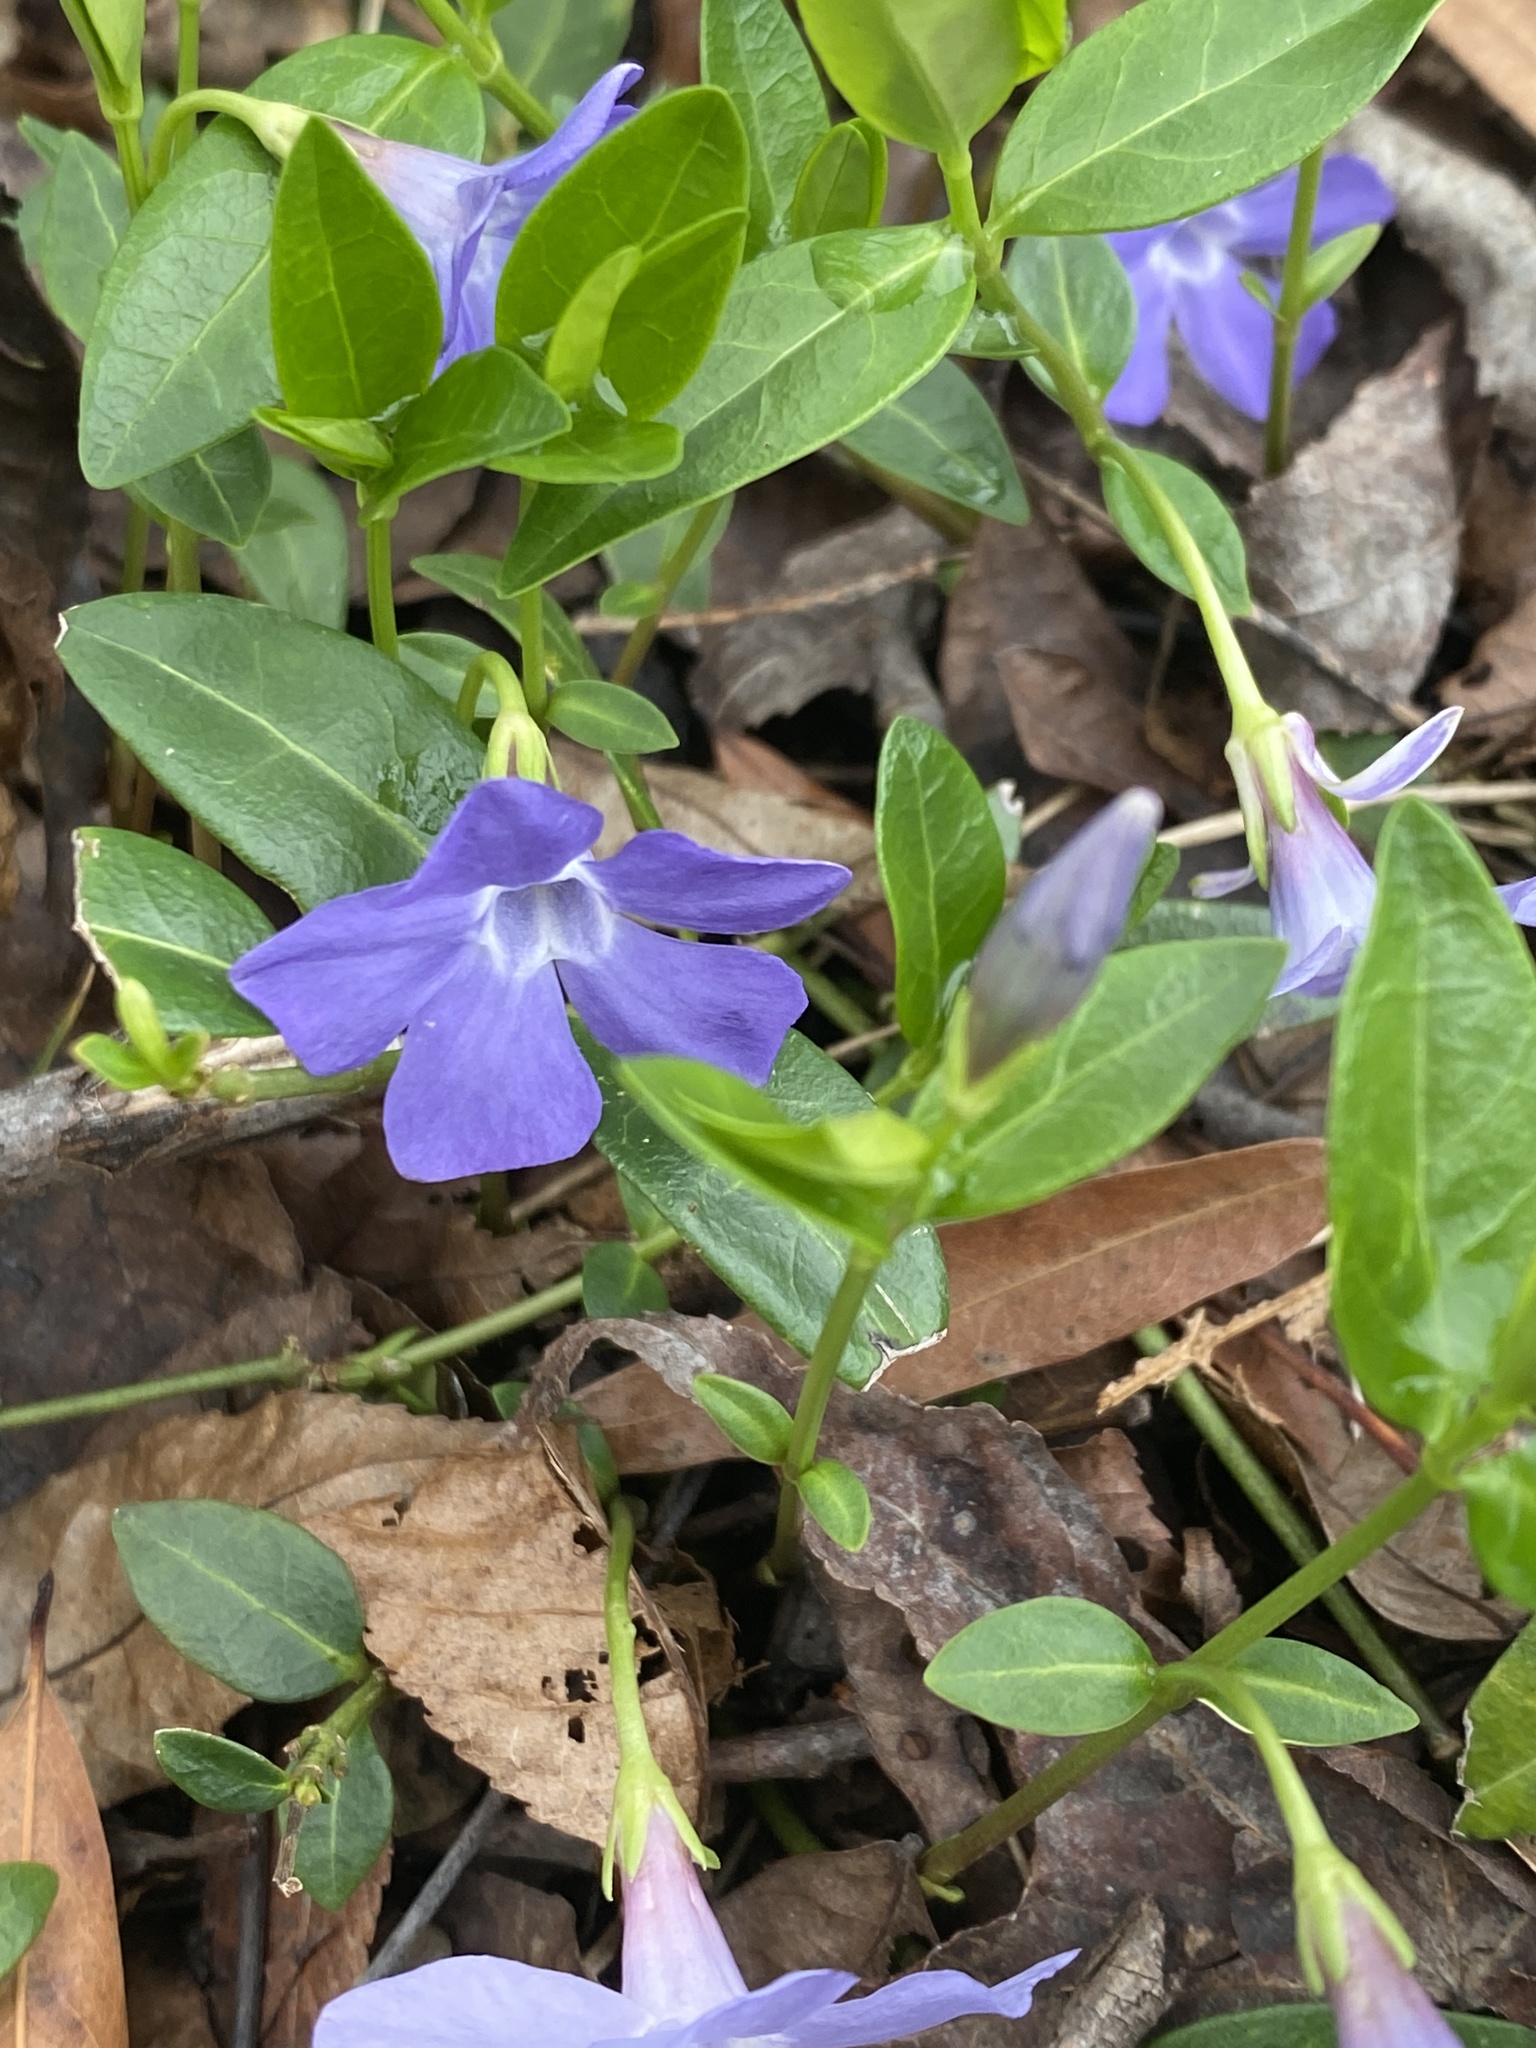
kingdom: Plantae
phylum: Tracheophyta
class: Magnoliopsida
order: Gentianales
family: Apocynaceae
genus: Vinca
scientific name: Vinca minor
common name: Lesser periwinkle
